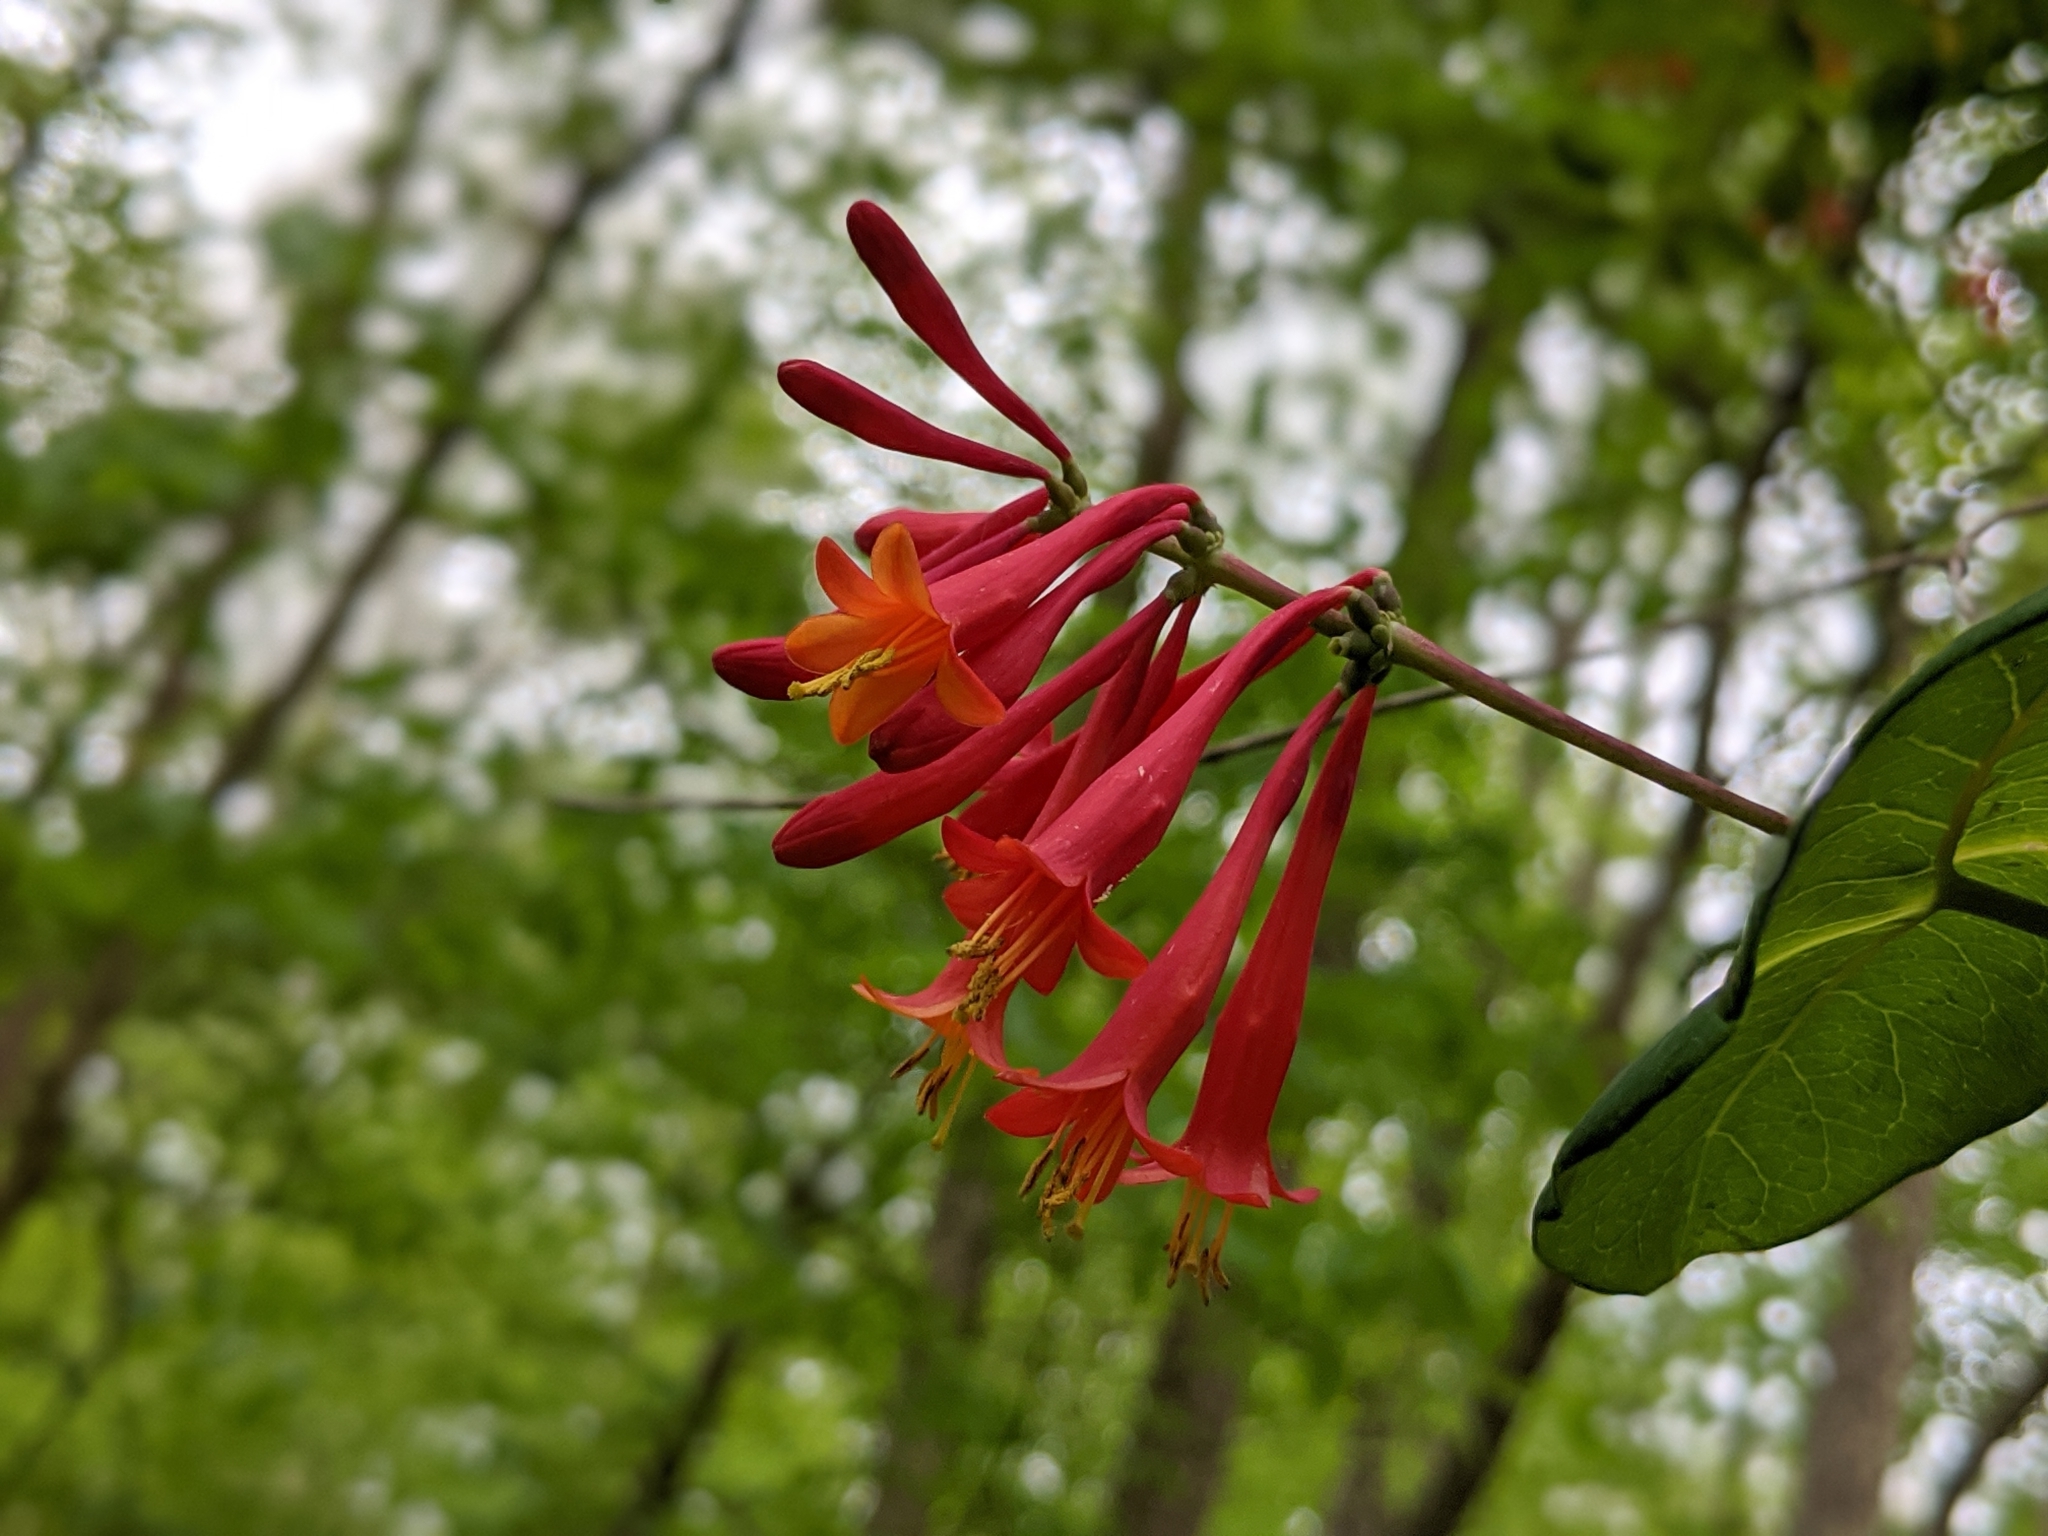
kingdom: Plantae
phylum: Tracheophyta
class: Magnoliopsida
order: Dipsacales
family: Caprifoliaceae
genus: Lonicera
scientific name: Lonicera sempervirens
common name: Coral honeysuckle
